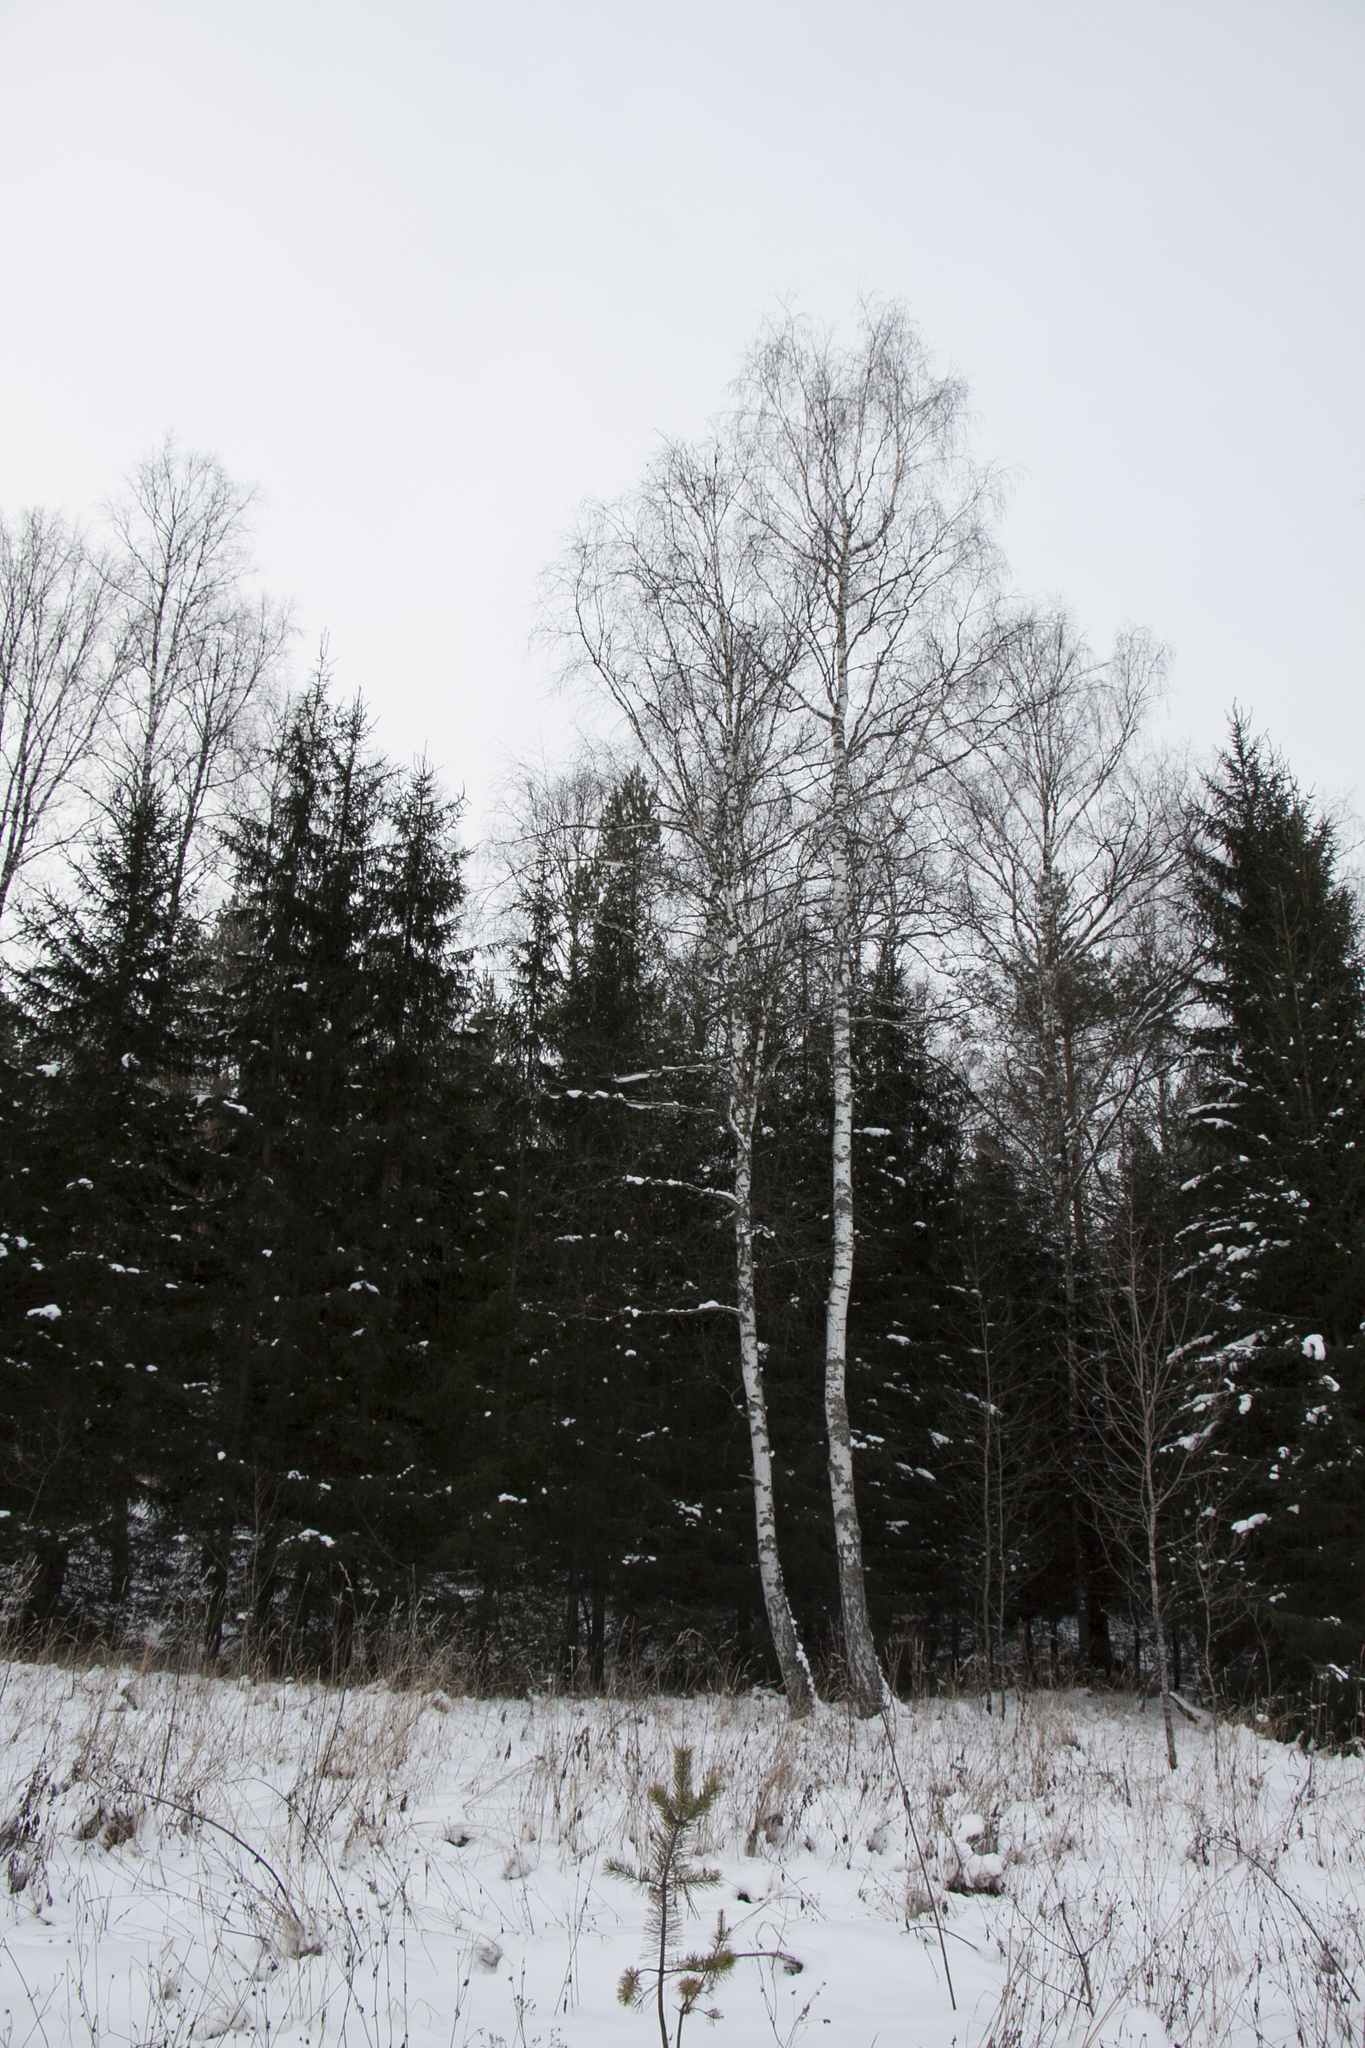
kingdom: Plantae
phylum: Tracheophyta
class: Magnoliopsida
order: Fagales
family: Betulaceae
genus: Betula
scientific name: Betula pendula
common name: Silver birch
